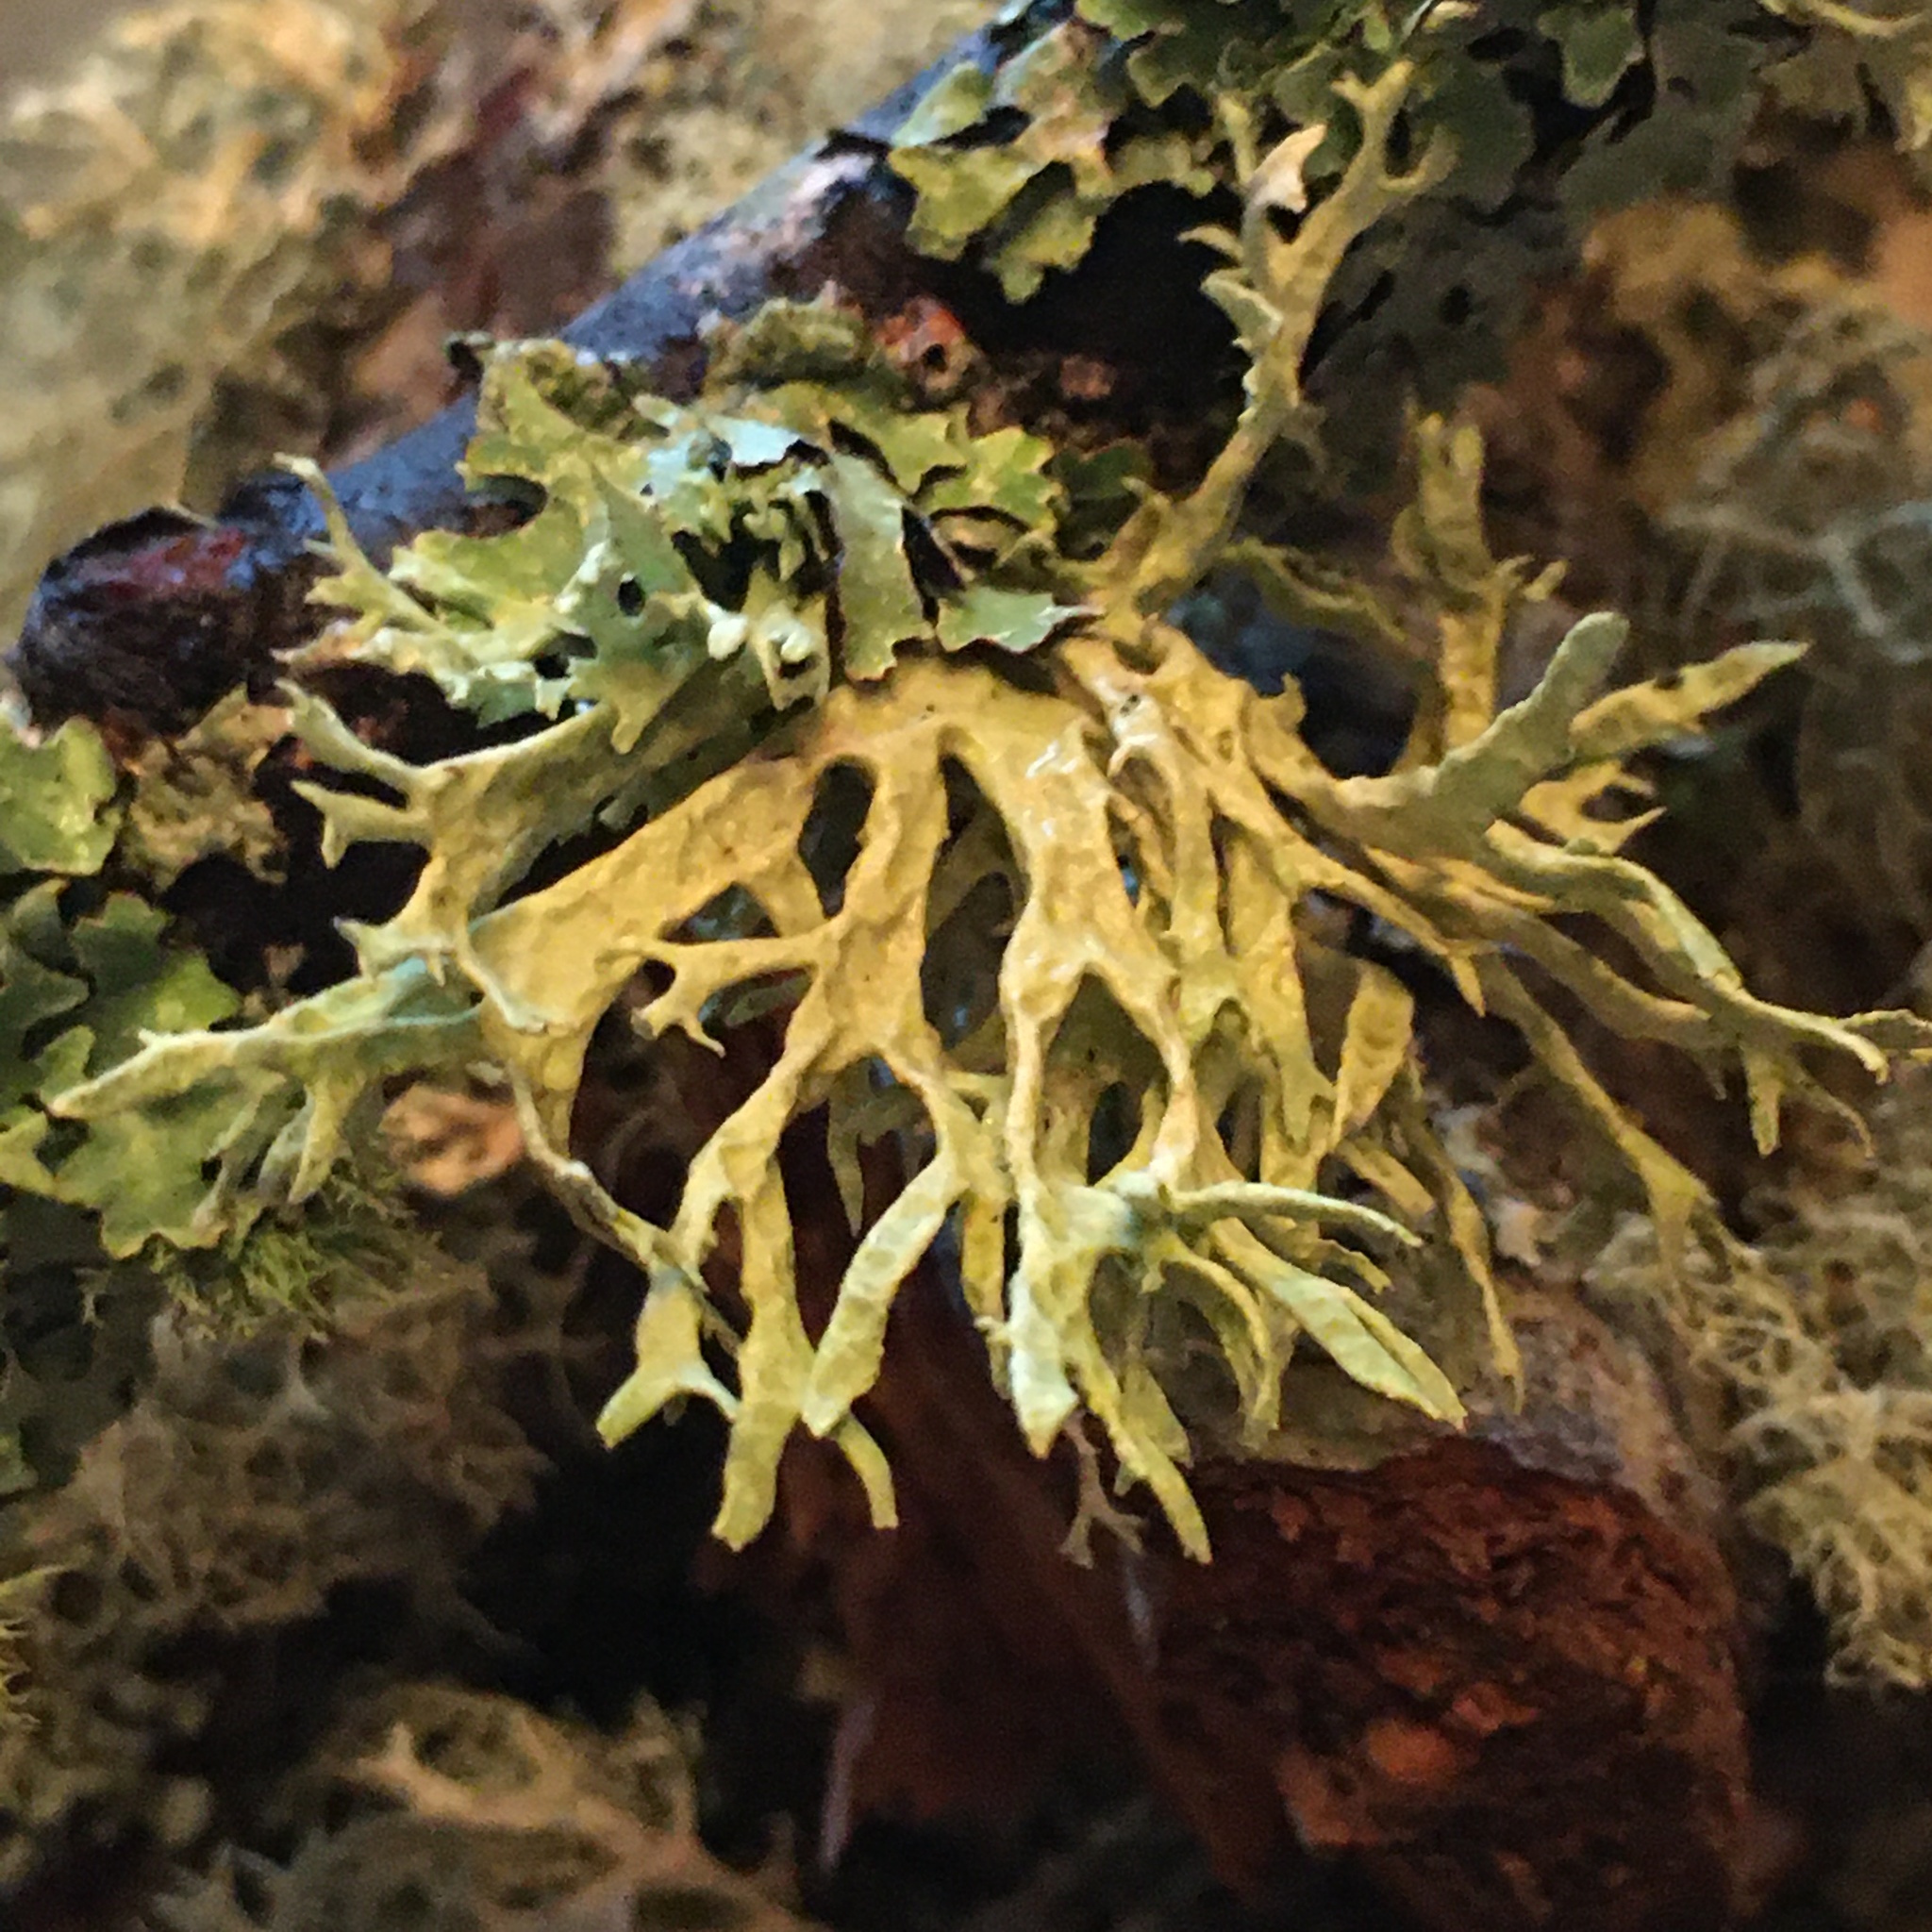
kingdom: Fungi
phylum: Ascomycota
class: Lecanoromycetes
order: Lecanorales
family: Parmeliaceae
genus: Evernia
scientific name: Evernia prunastri
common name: Oak moss
